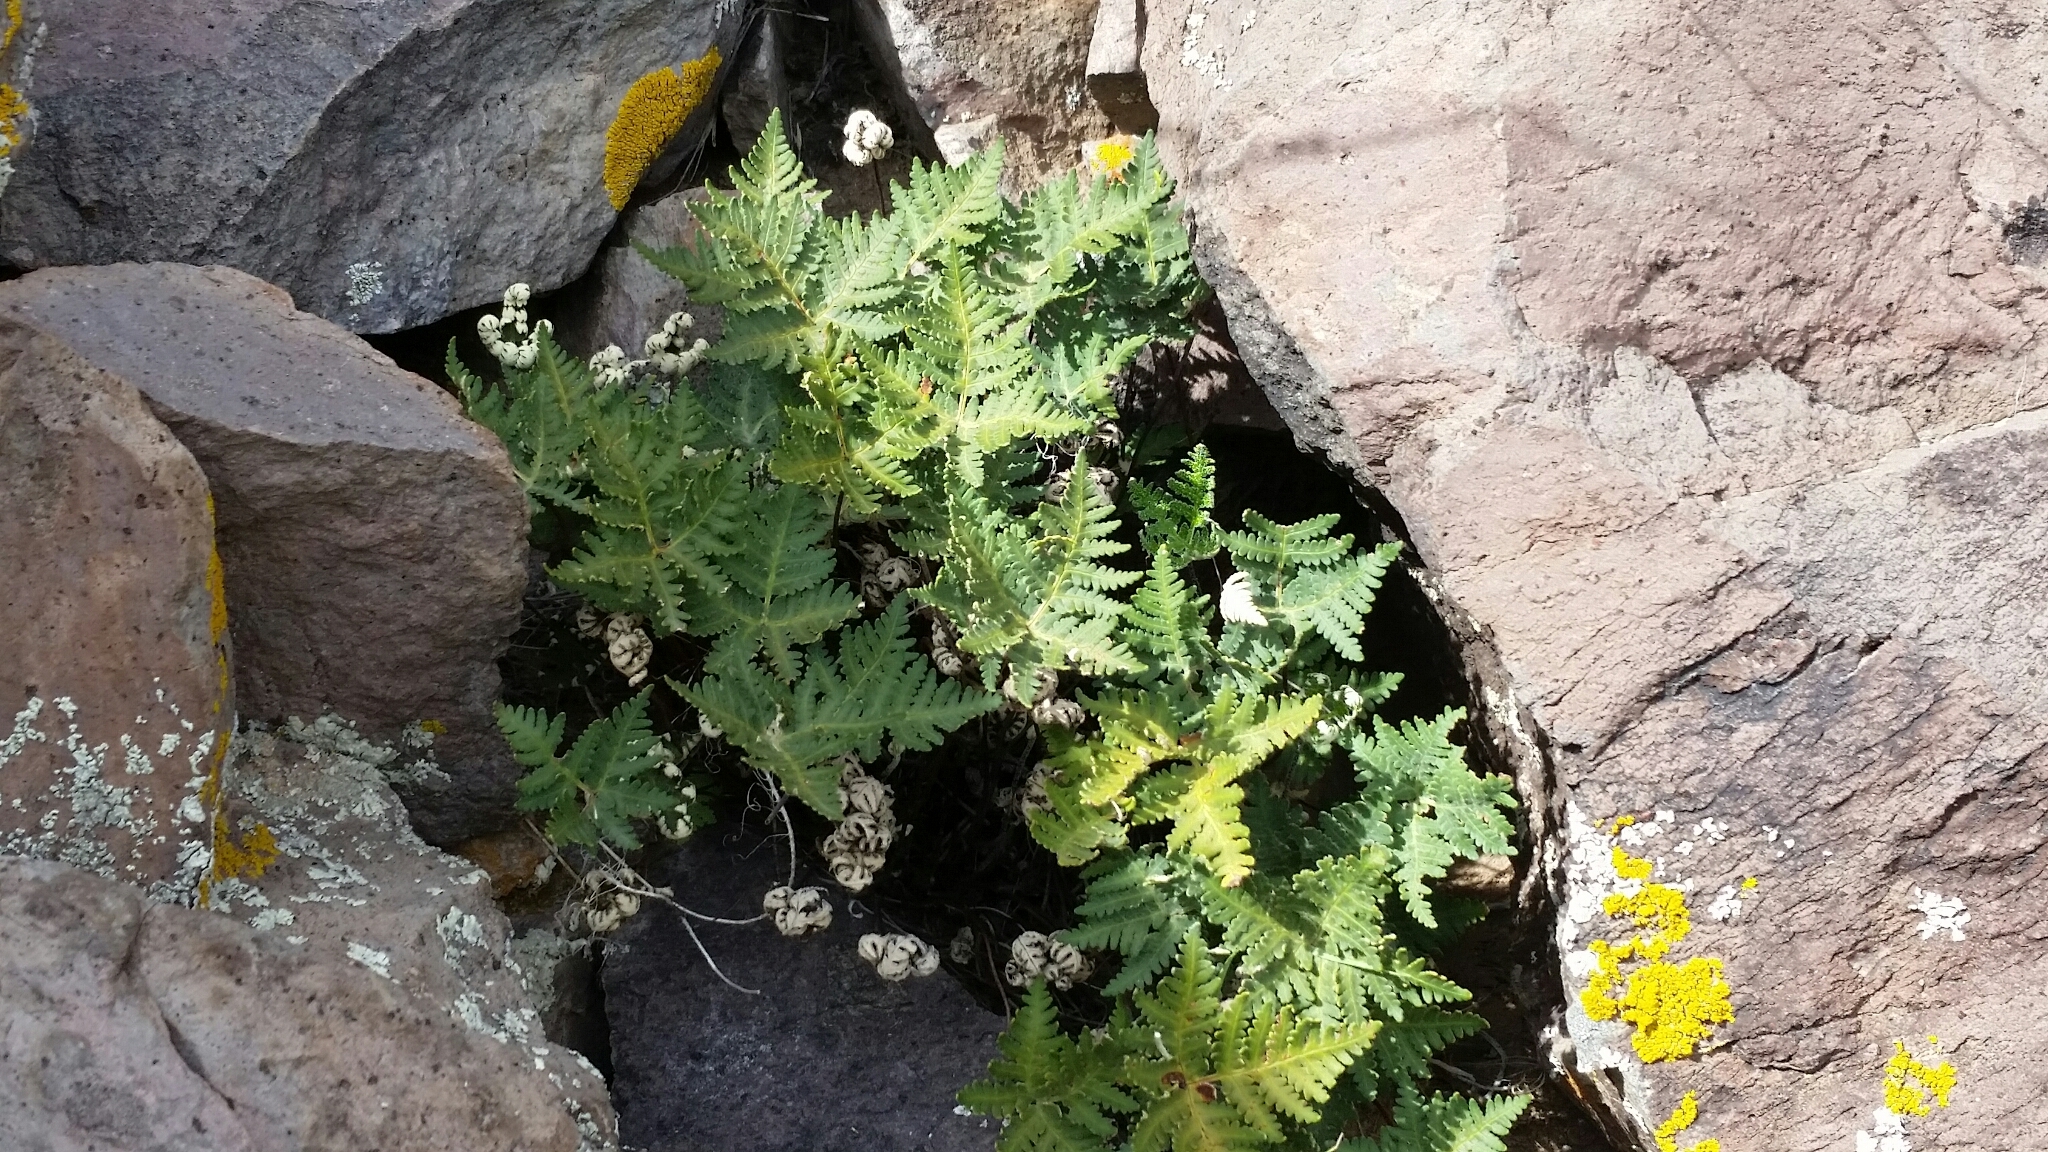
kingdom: Plantae
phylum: Tracheophyta
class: Polypodiopsida
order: Polypodiales
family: Pteridaceae
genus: Notholaena
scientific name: Notholaena standleyi
